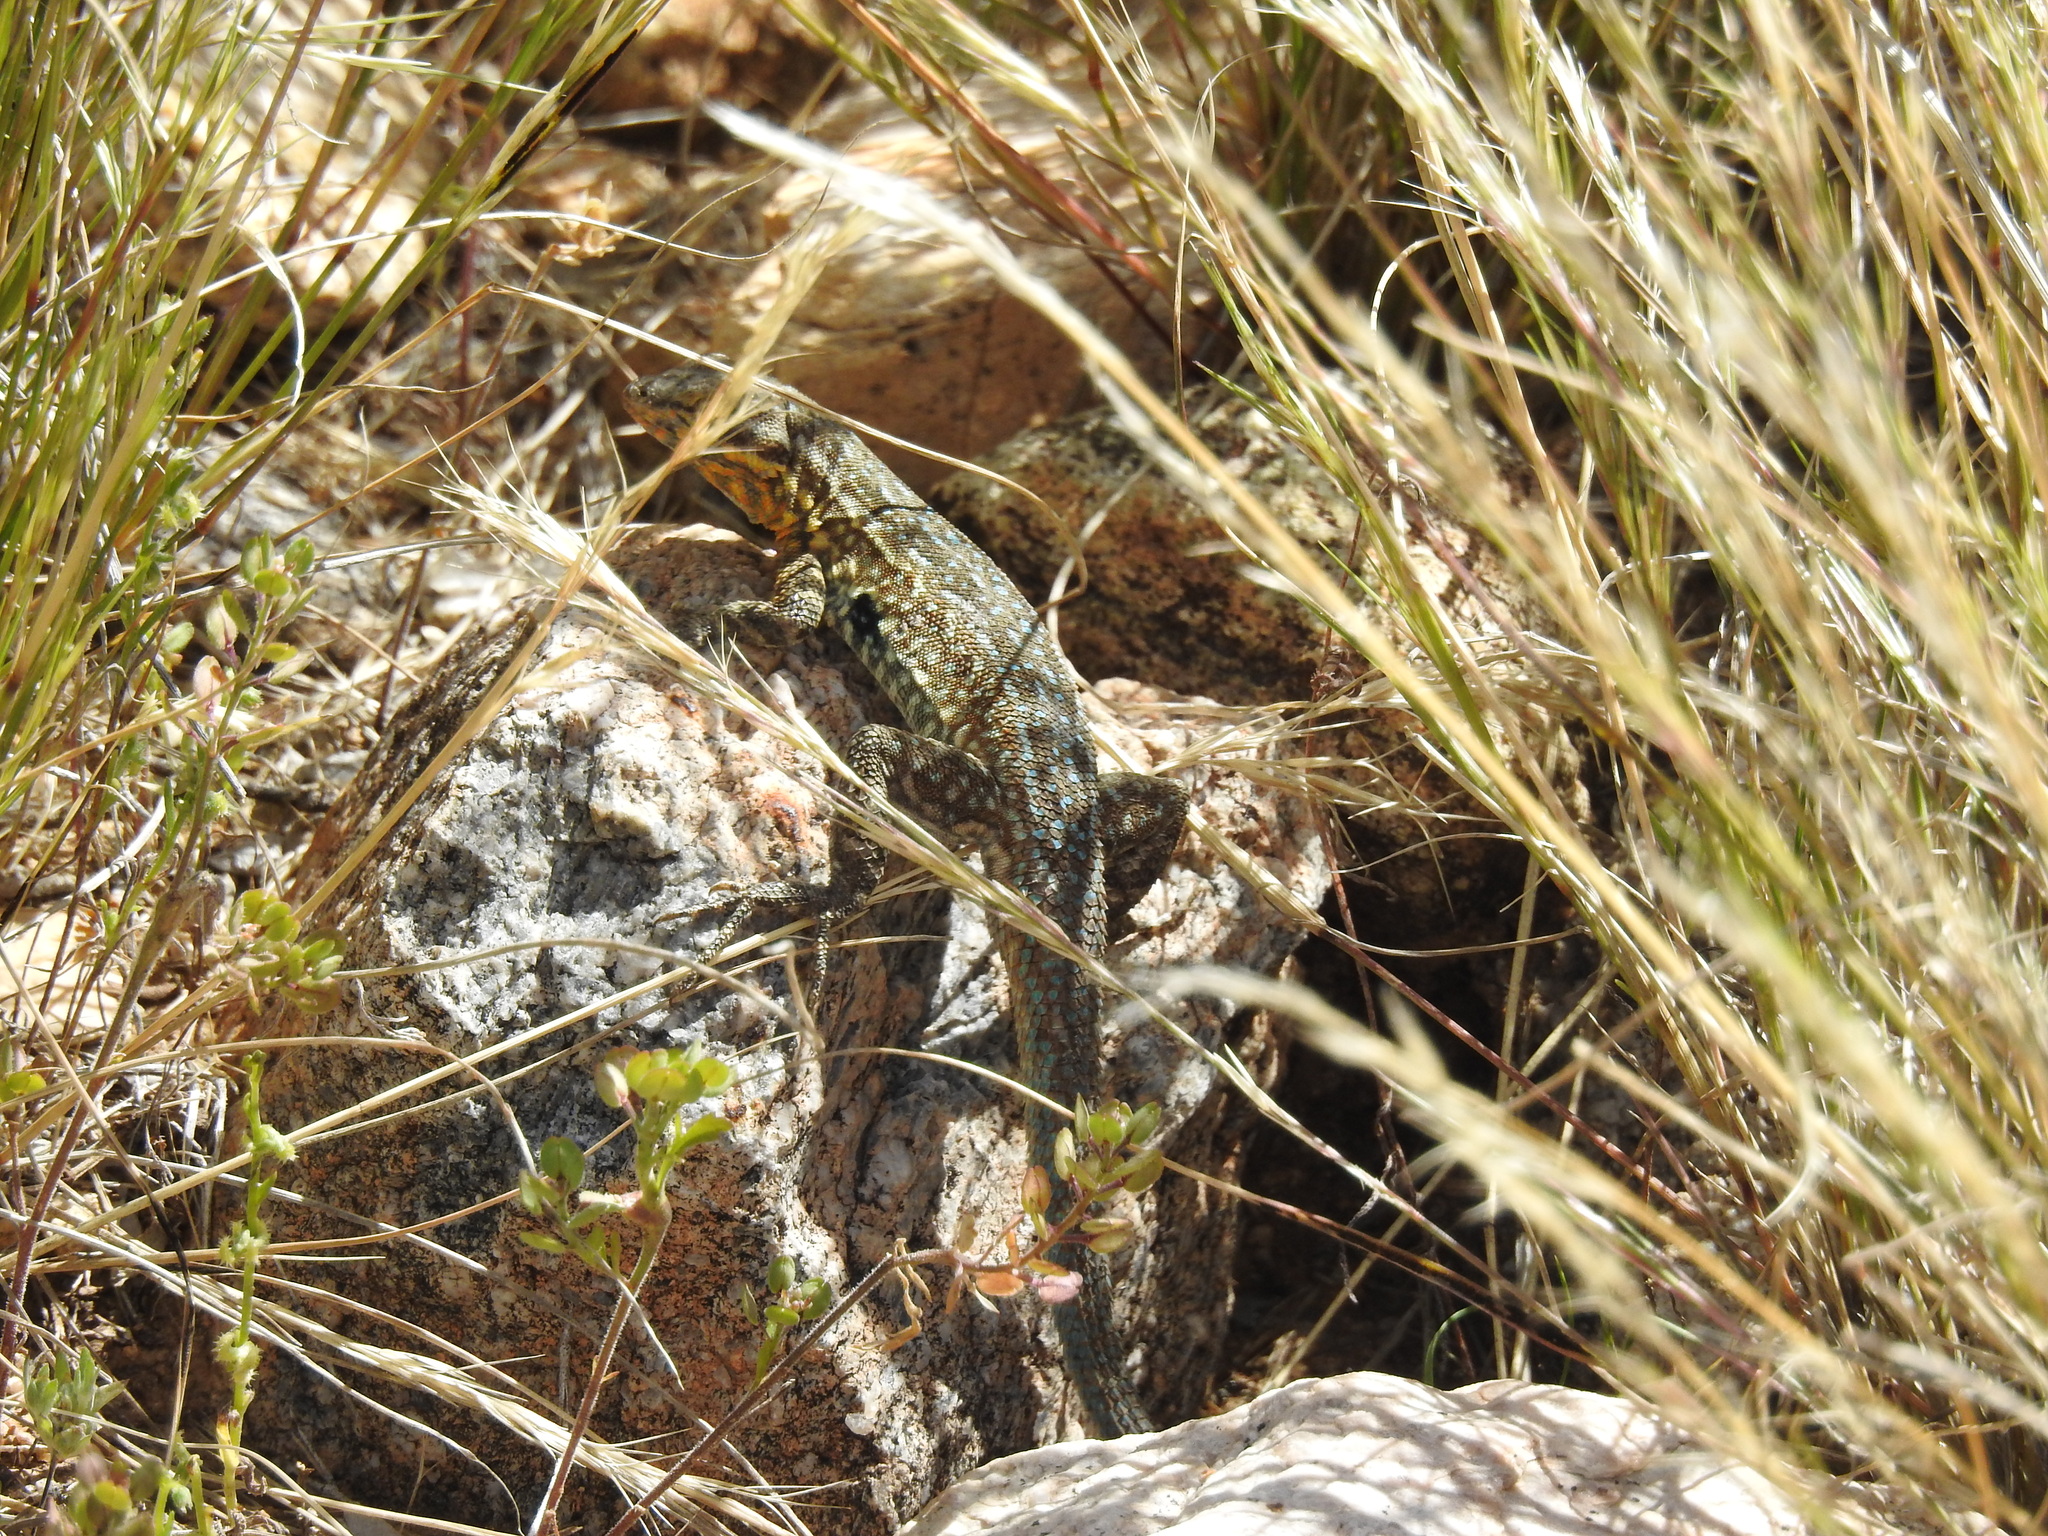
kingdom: Animalia
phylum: Chordata
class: Squamata
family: Phrynosomatidae
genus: Uta
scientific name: Uta stansburiana
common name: Side-blotched lizard
